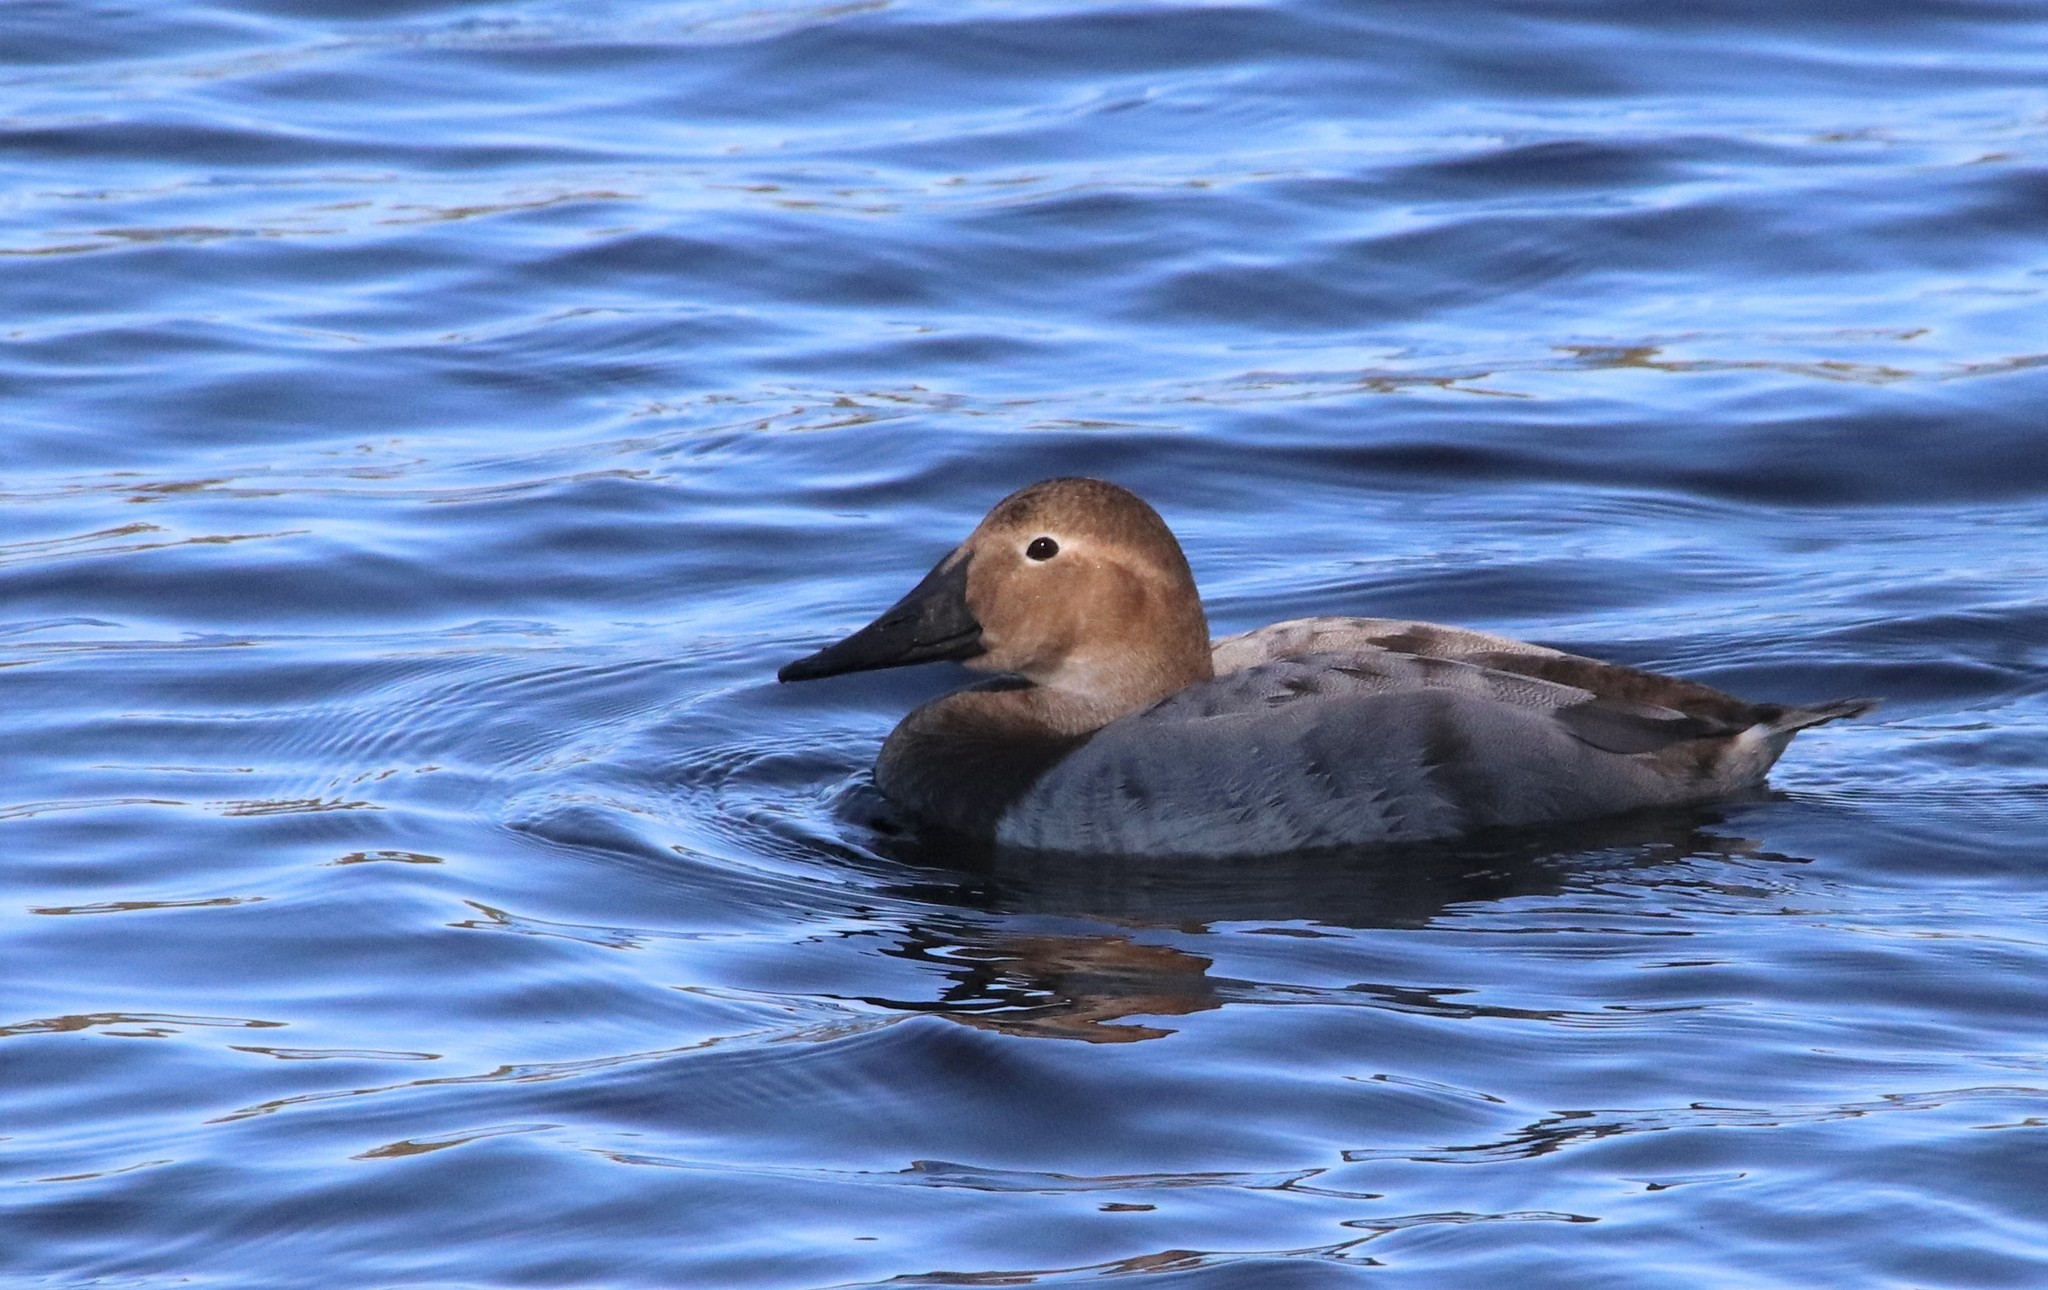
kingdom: Animalia
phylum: Chordata
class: Aves
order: Anseriformes
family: Anatidae
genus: Aythya
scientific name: Aythya valisineria
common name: Canvasback
